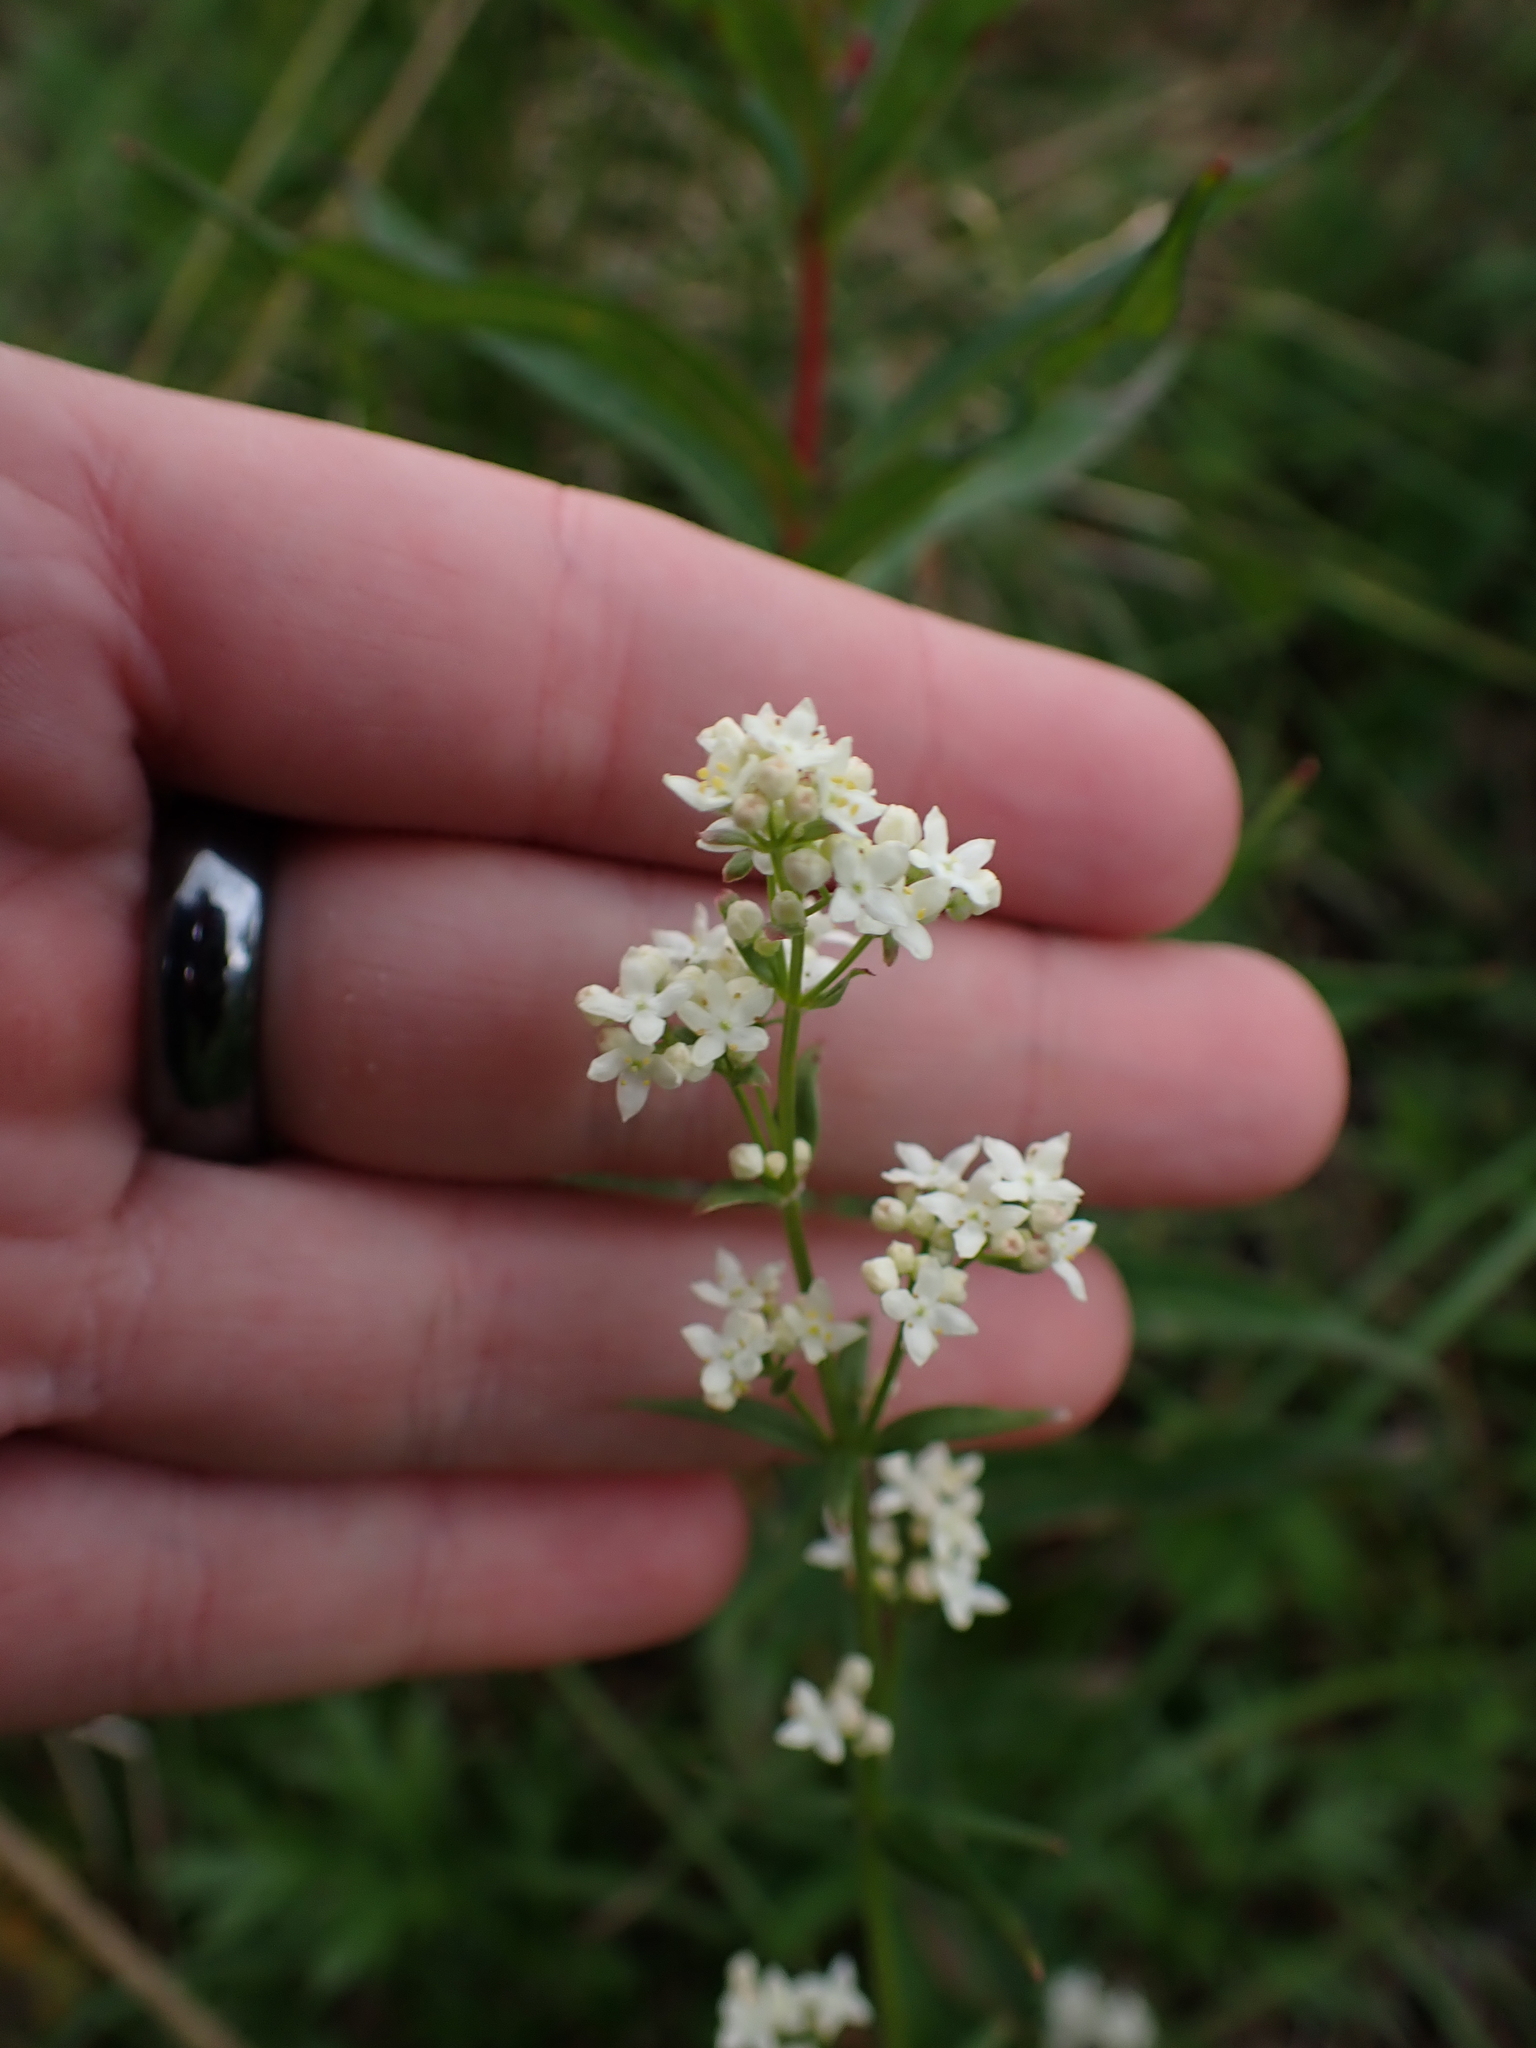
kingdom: Plantae
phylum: Tracheophyta
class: Magnoliopsida
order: Gentianales
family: Rubiaceae
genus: Galium
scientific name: Galium boreale
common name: Northern bedstraw
